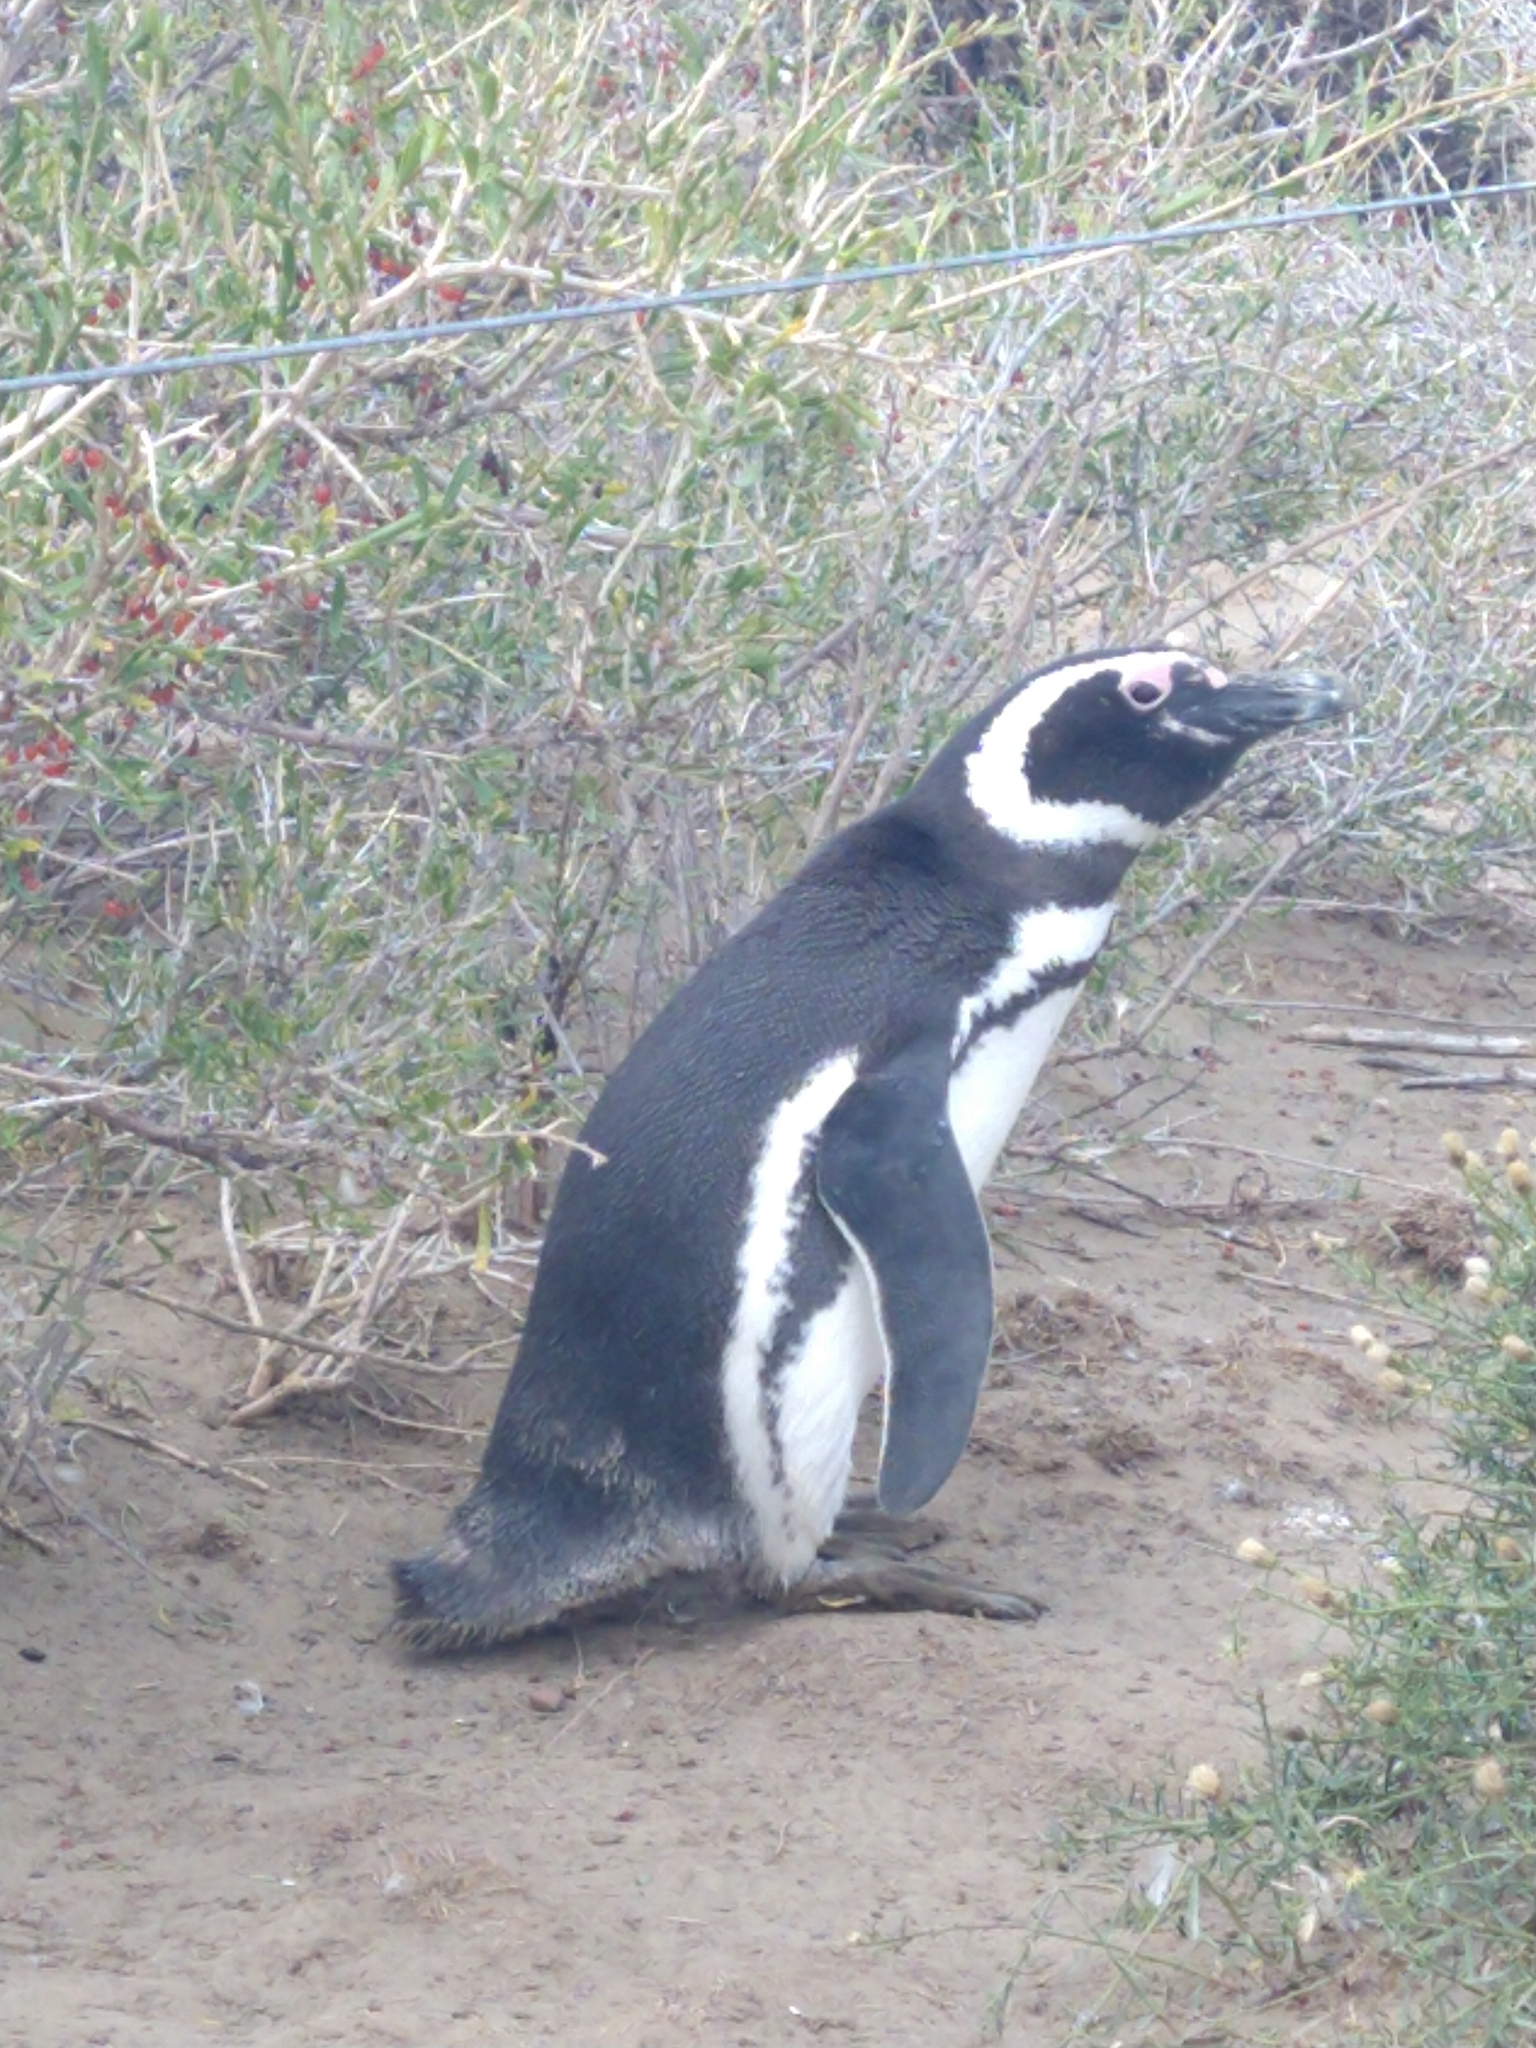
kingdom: Animalia
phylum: Chordata
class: Aves
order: Sphenisciformes
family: Spheniscidae
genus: Spheniscus
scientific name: Spheniscus magellanicus
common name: Magellanic penguin
